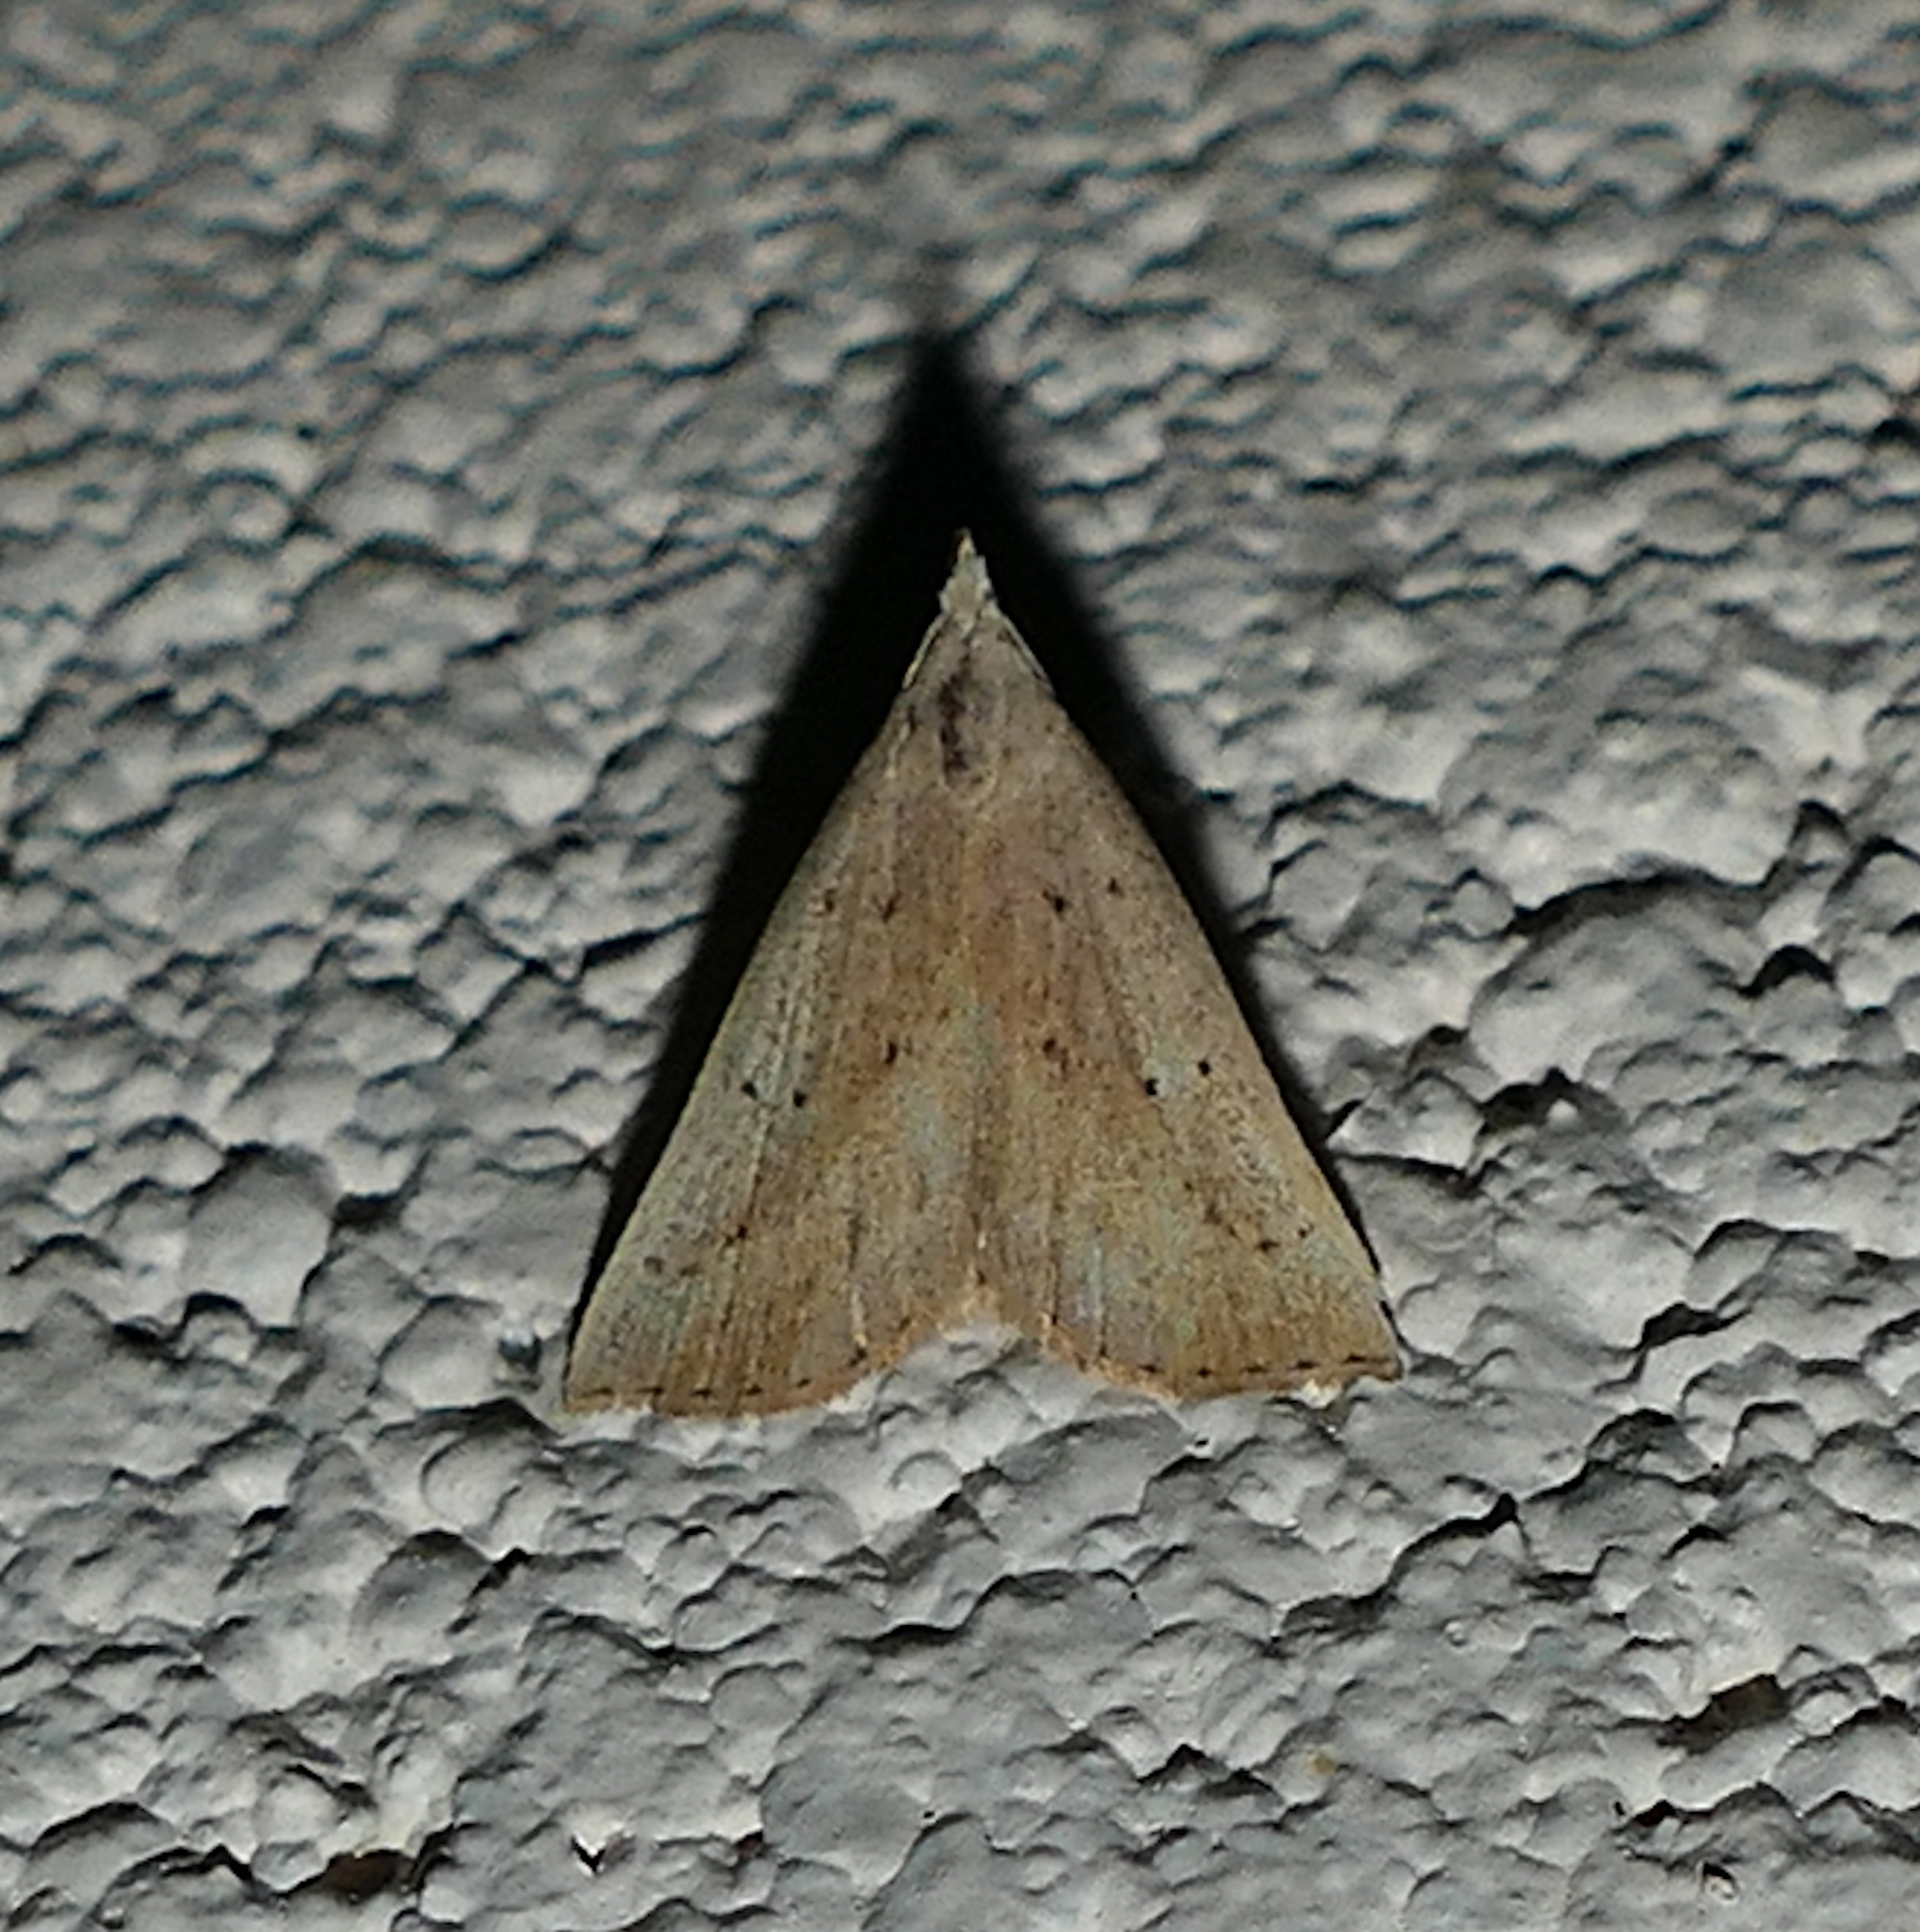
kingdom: Animalia
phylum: Arthropoda
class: Insecta
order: Lepidoptera
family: Erebidae
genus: Macrochilo
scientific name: Macrochilo louisiana
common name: Louisiana macrochilo
